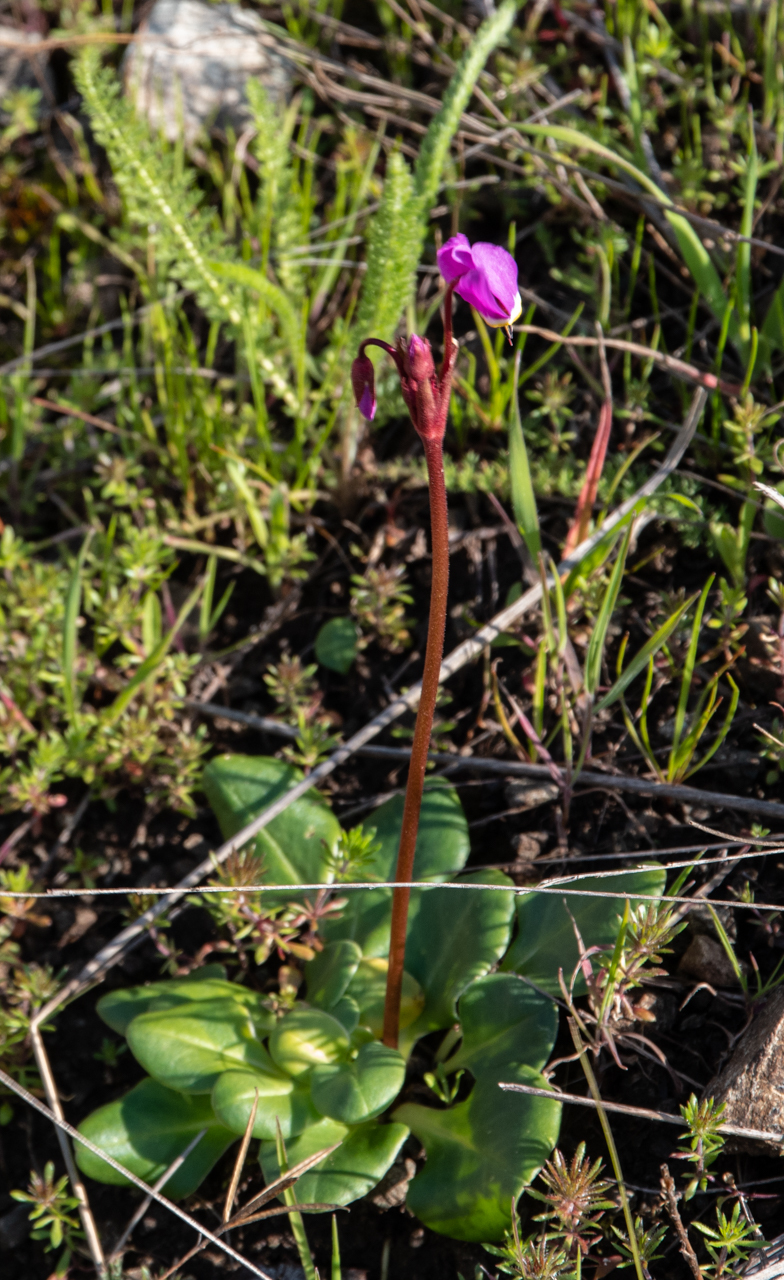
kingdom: Plantae
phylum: Tracheophyta
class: Magnoliopsida
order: Ericales
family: Primulaceae
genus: Dodecatheon
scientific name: Dodecatheon hendersonii
